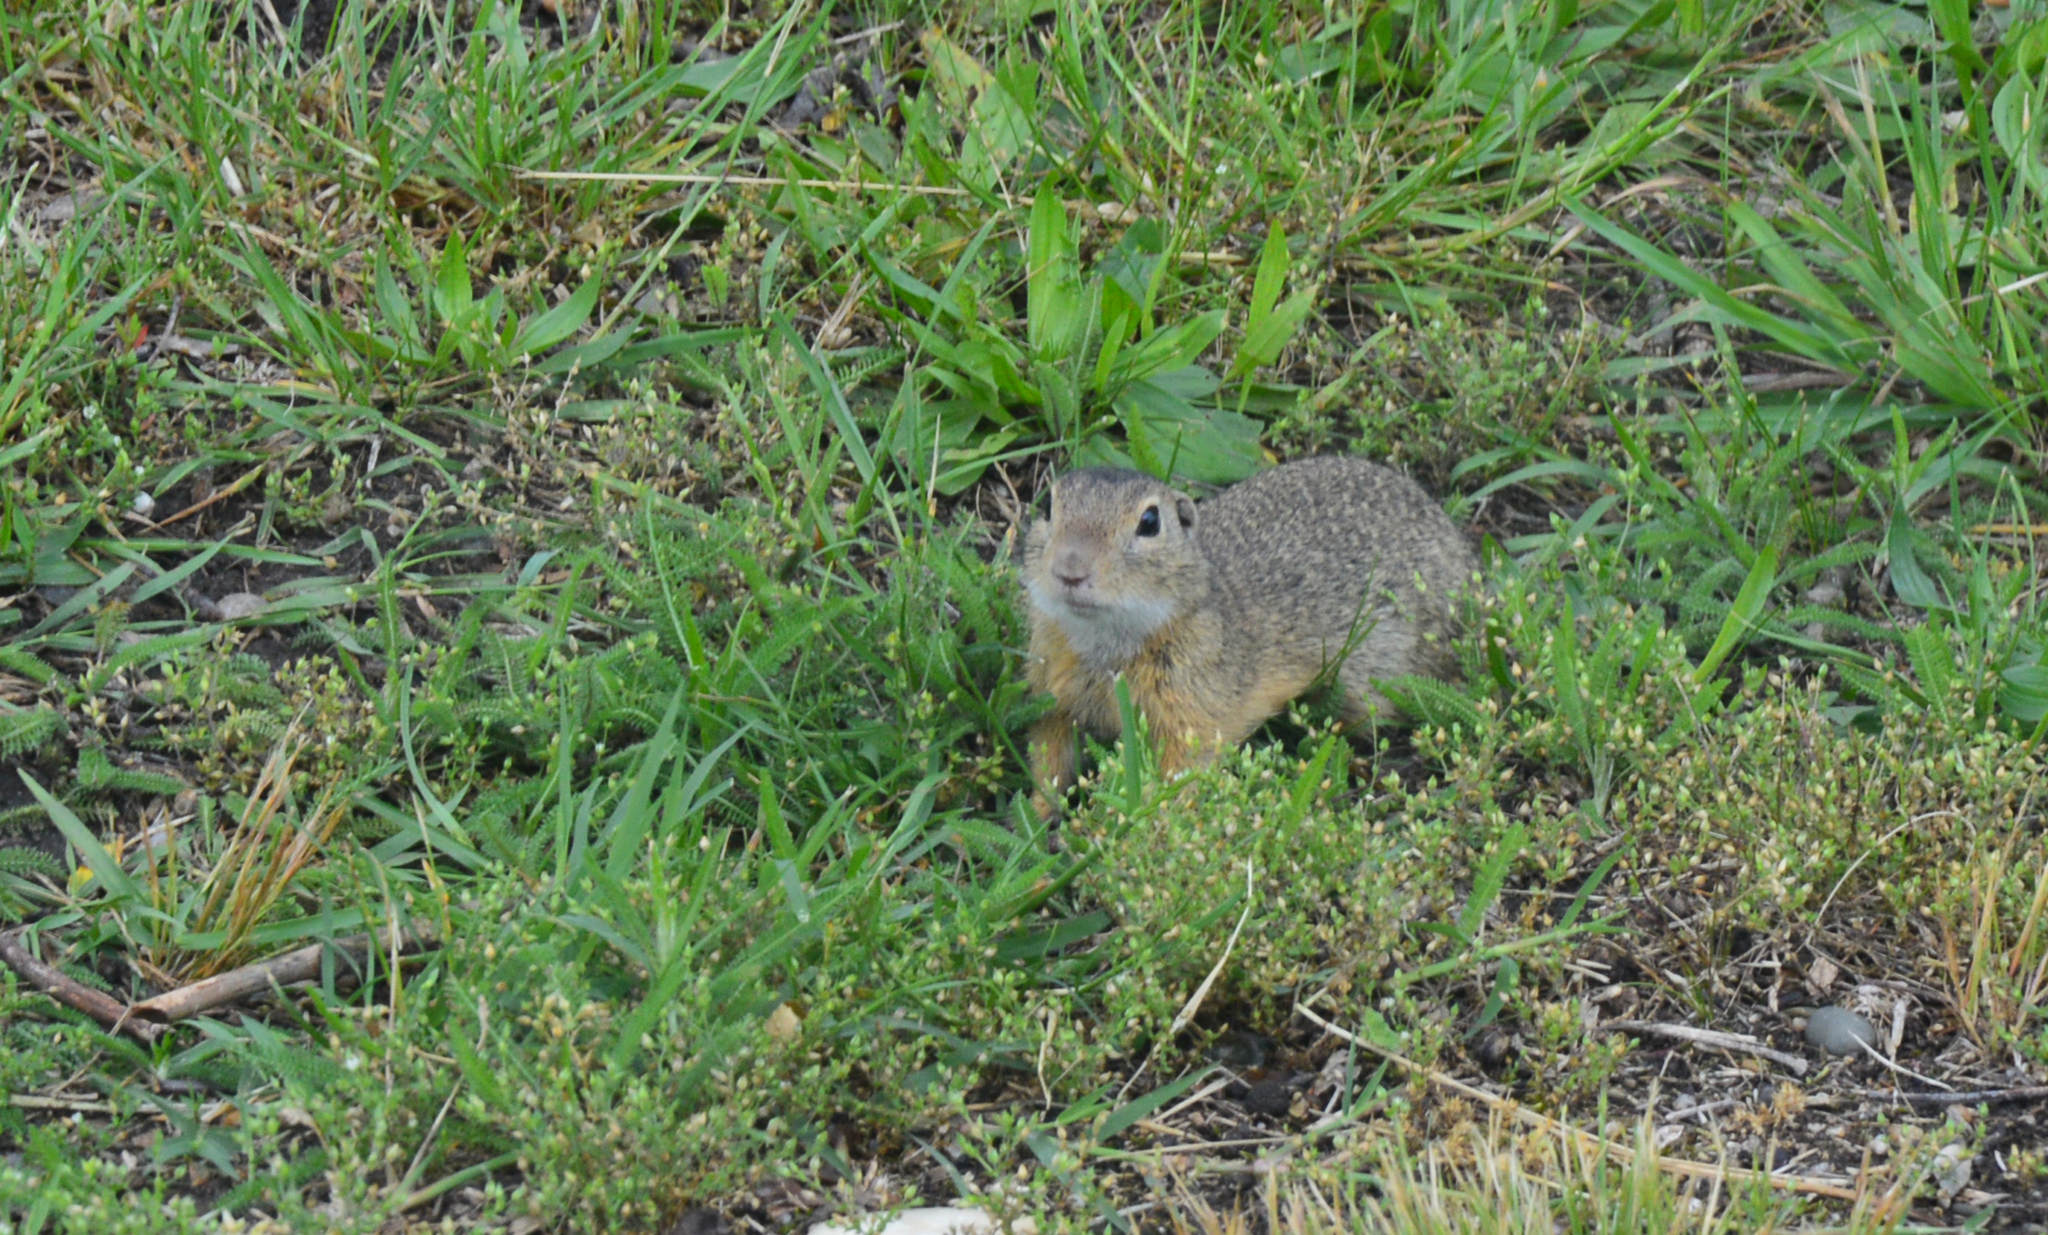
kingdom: Animalia
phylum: Chordata
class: Mammalia
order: Rodentia
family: Sciuridae
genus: Spermophilus
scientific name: Spermophilus citellus
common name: European ground squirrel
